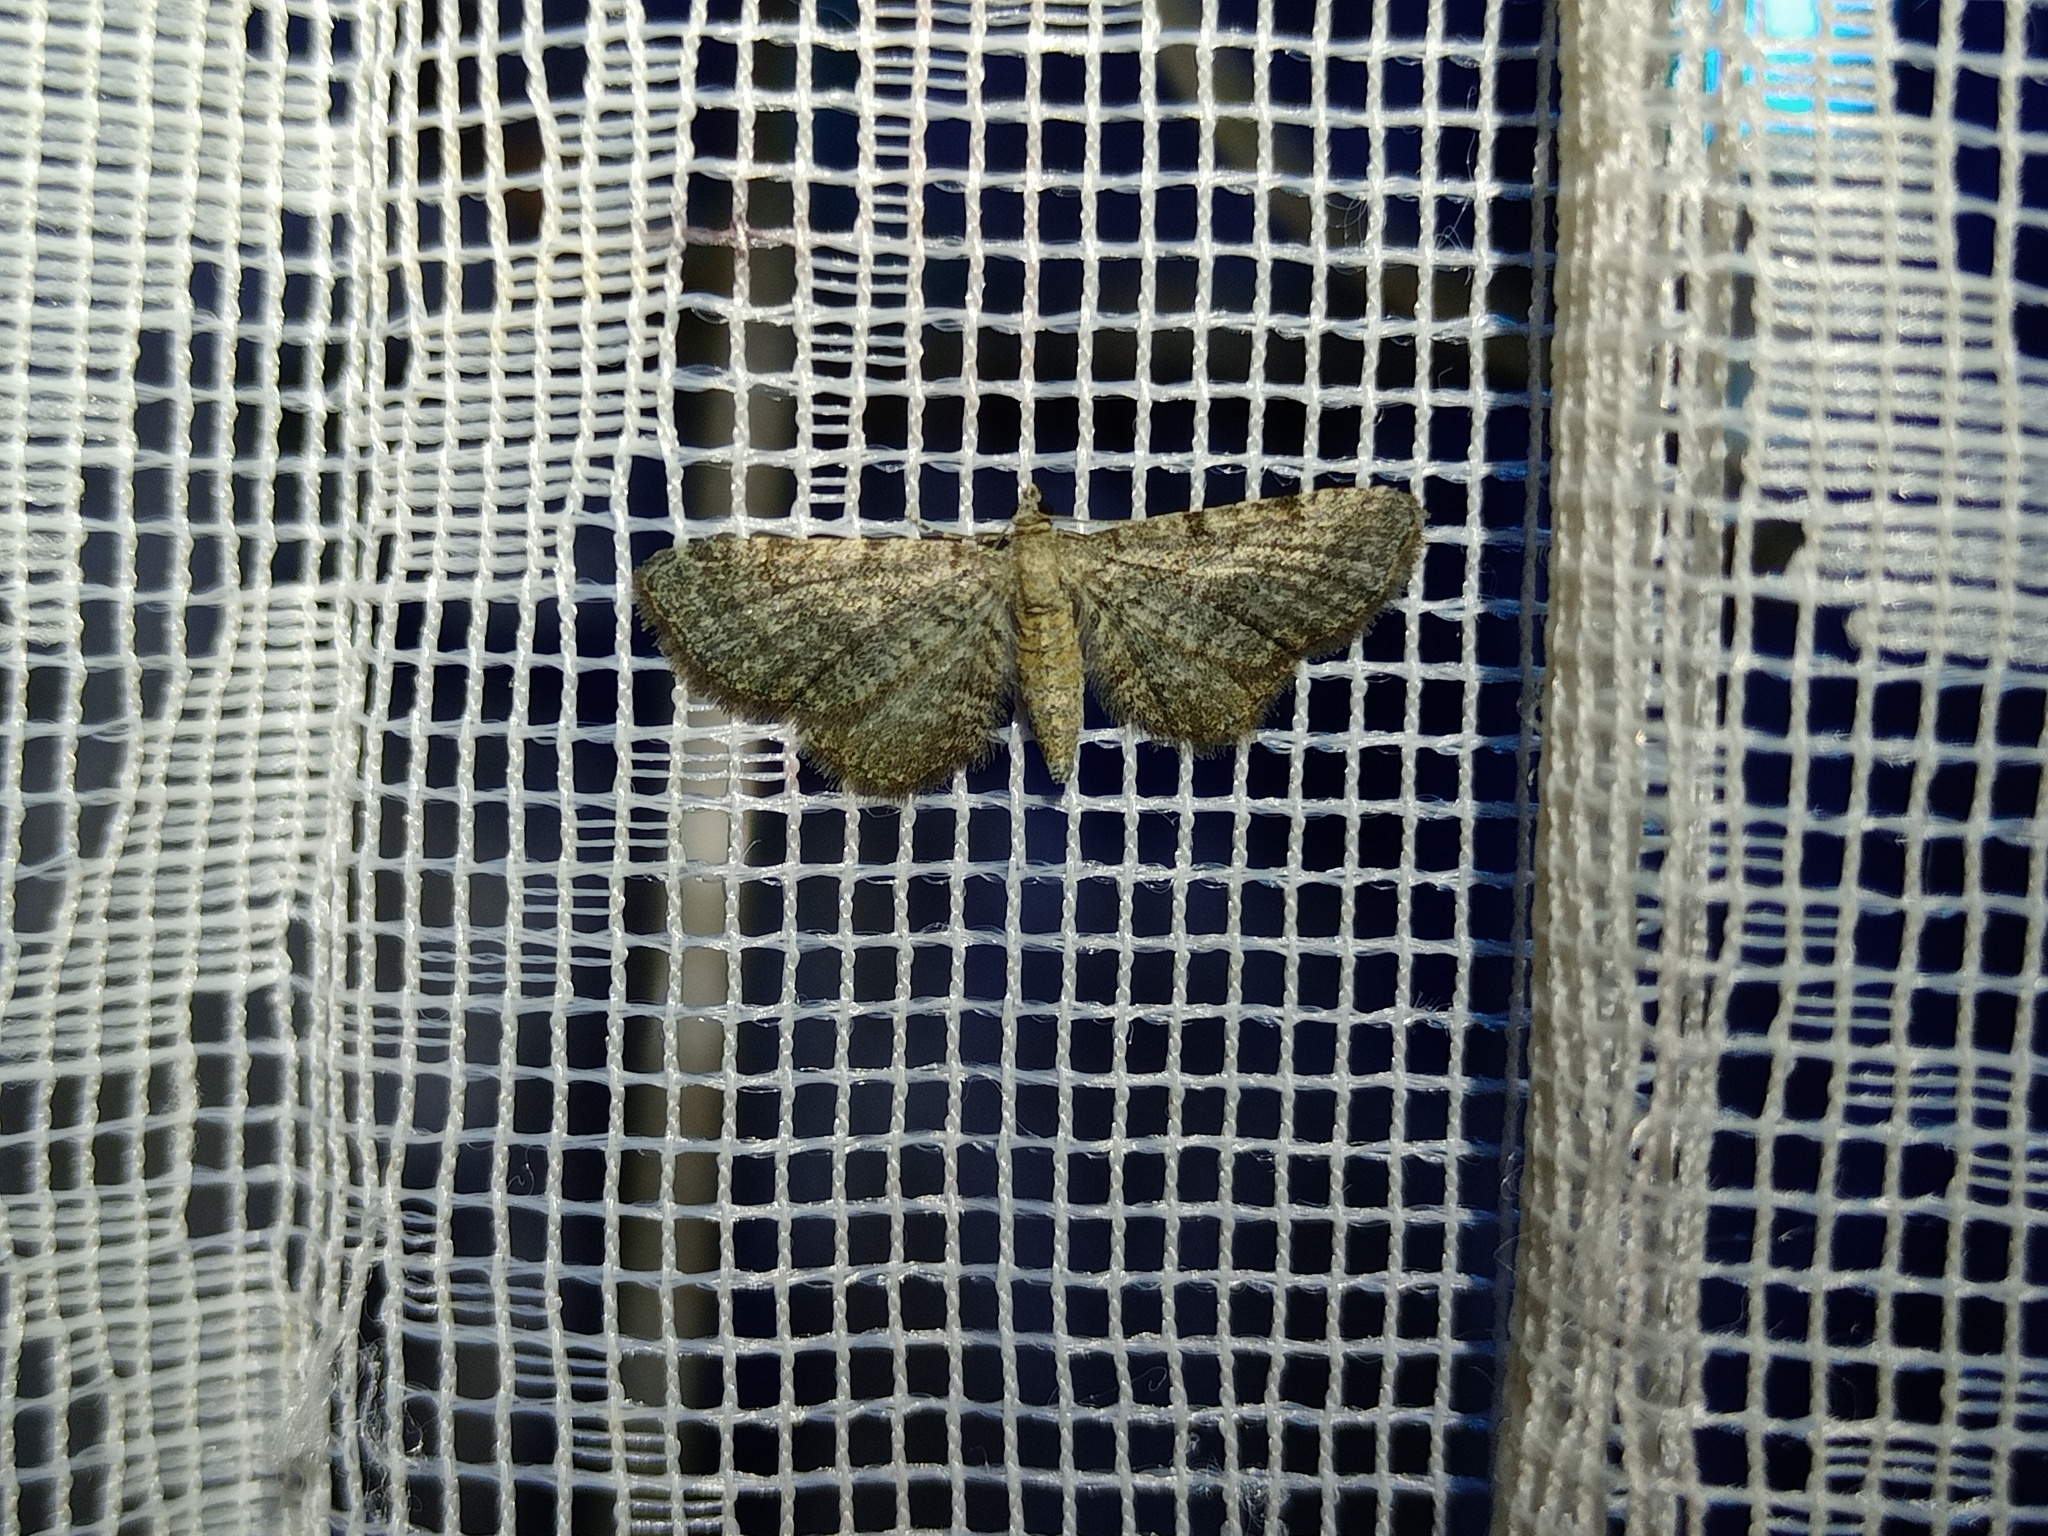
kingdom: Animalia
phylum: Arthropoda
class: Insecta
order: Lepidoptera
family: Geometridae
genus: Eupithecia
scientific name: Eupithecia plumbeolata
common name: Lead-coloured pug
